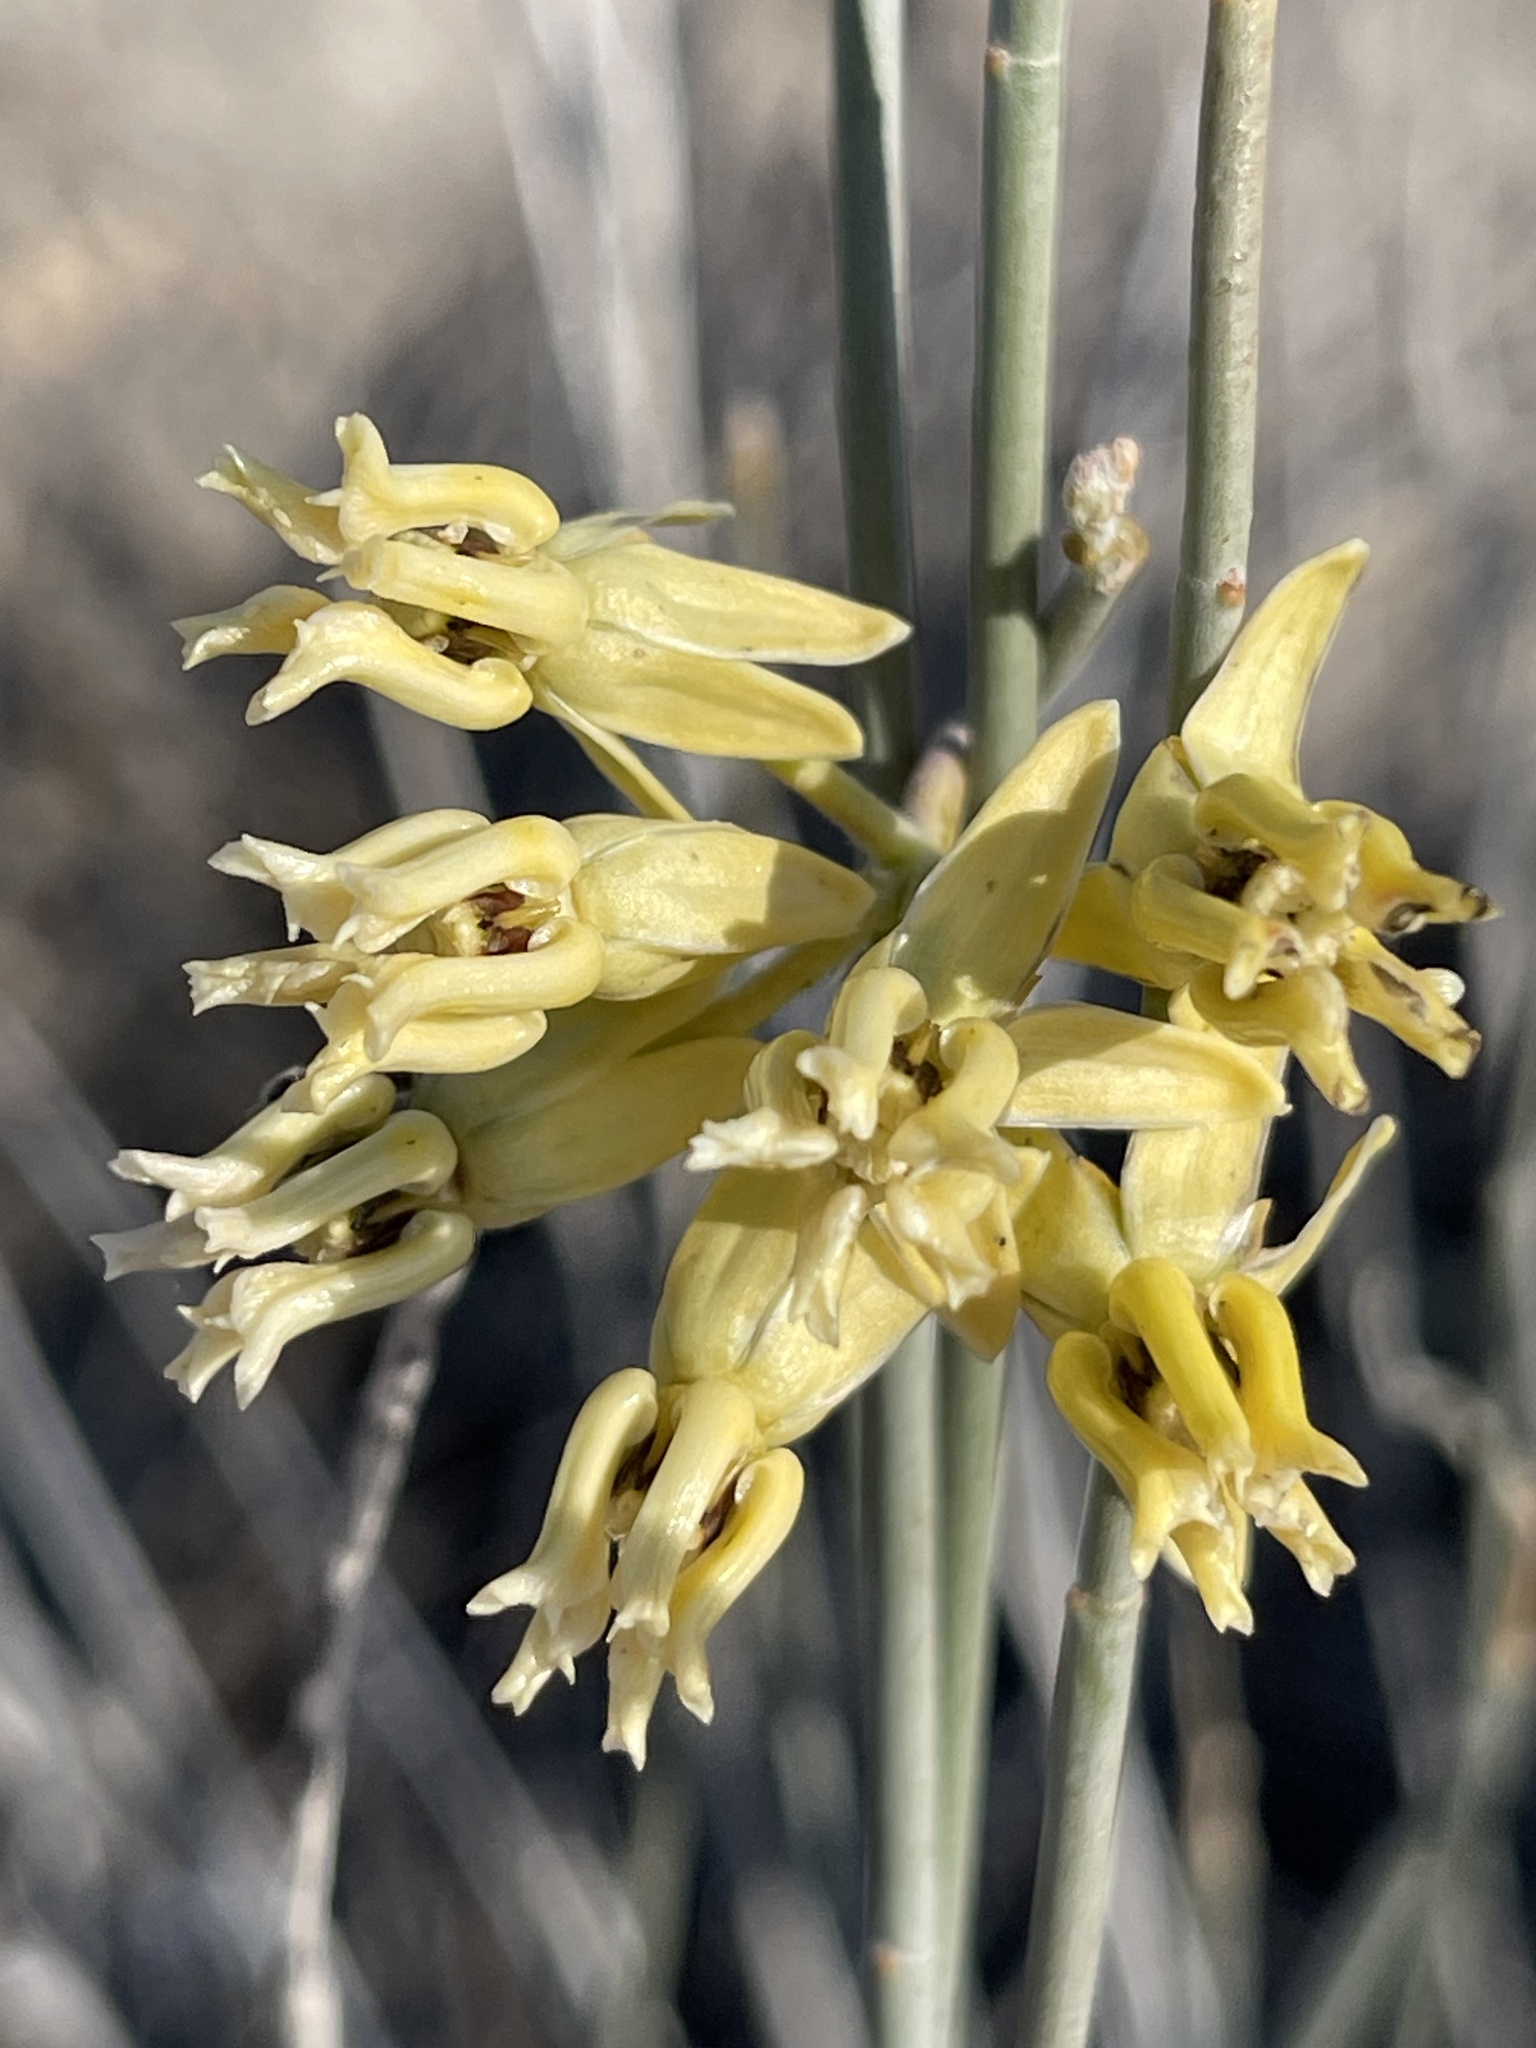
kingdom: Plantae
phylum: Tracheophyta
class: Magnoliopsida
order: Gentianales
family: Apocynaceae
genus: Asclepias
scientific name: Asclepias subulata
